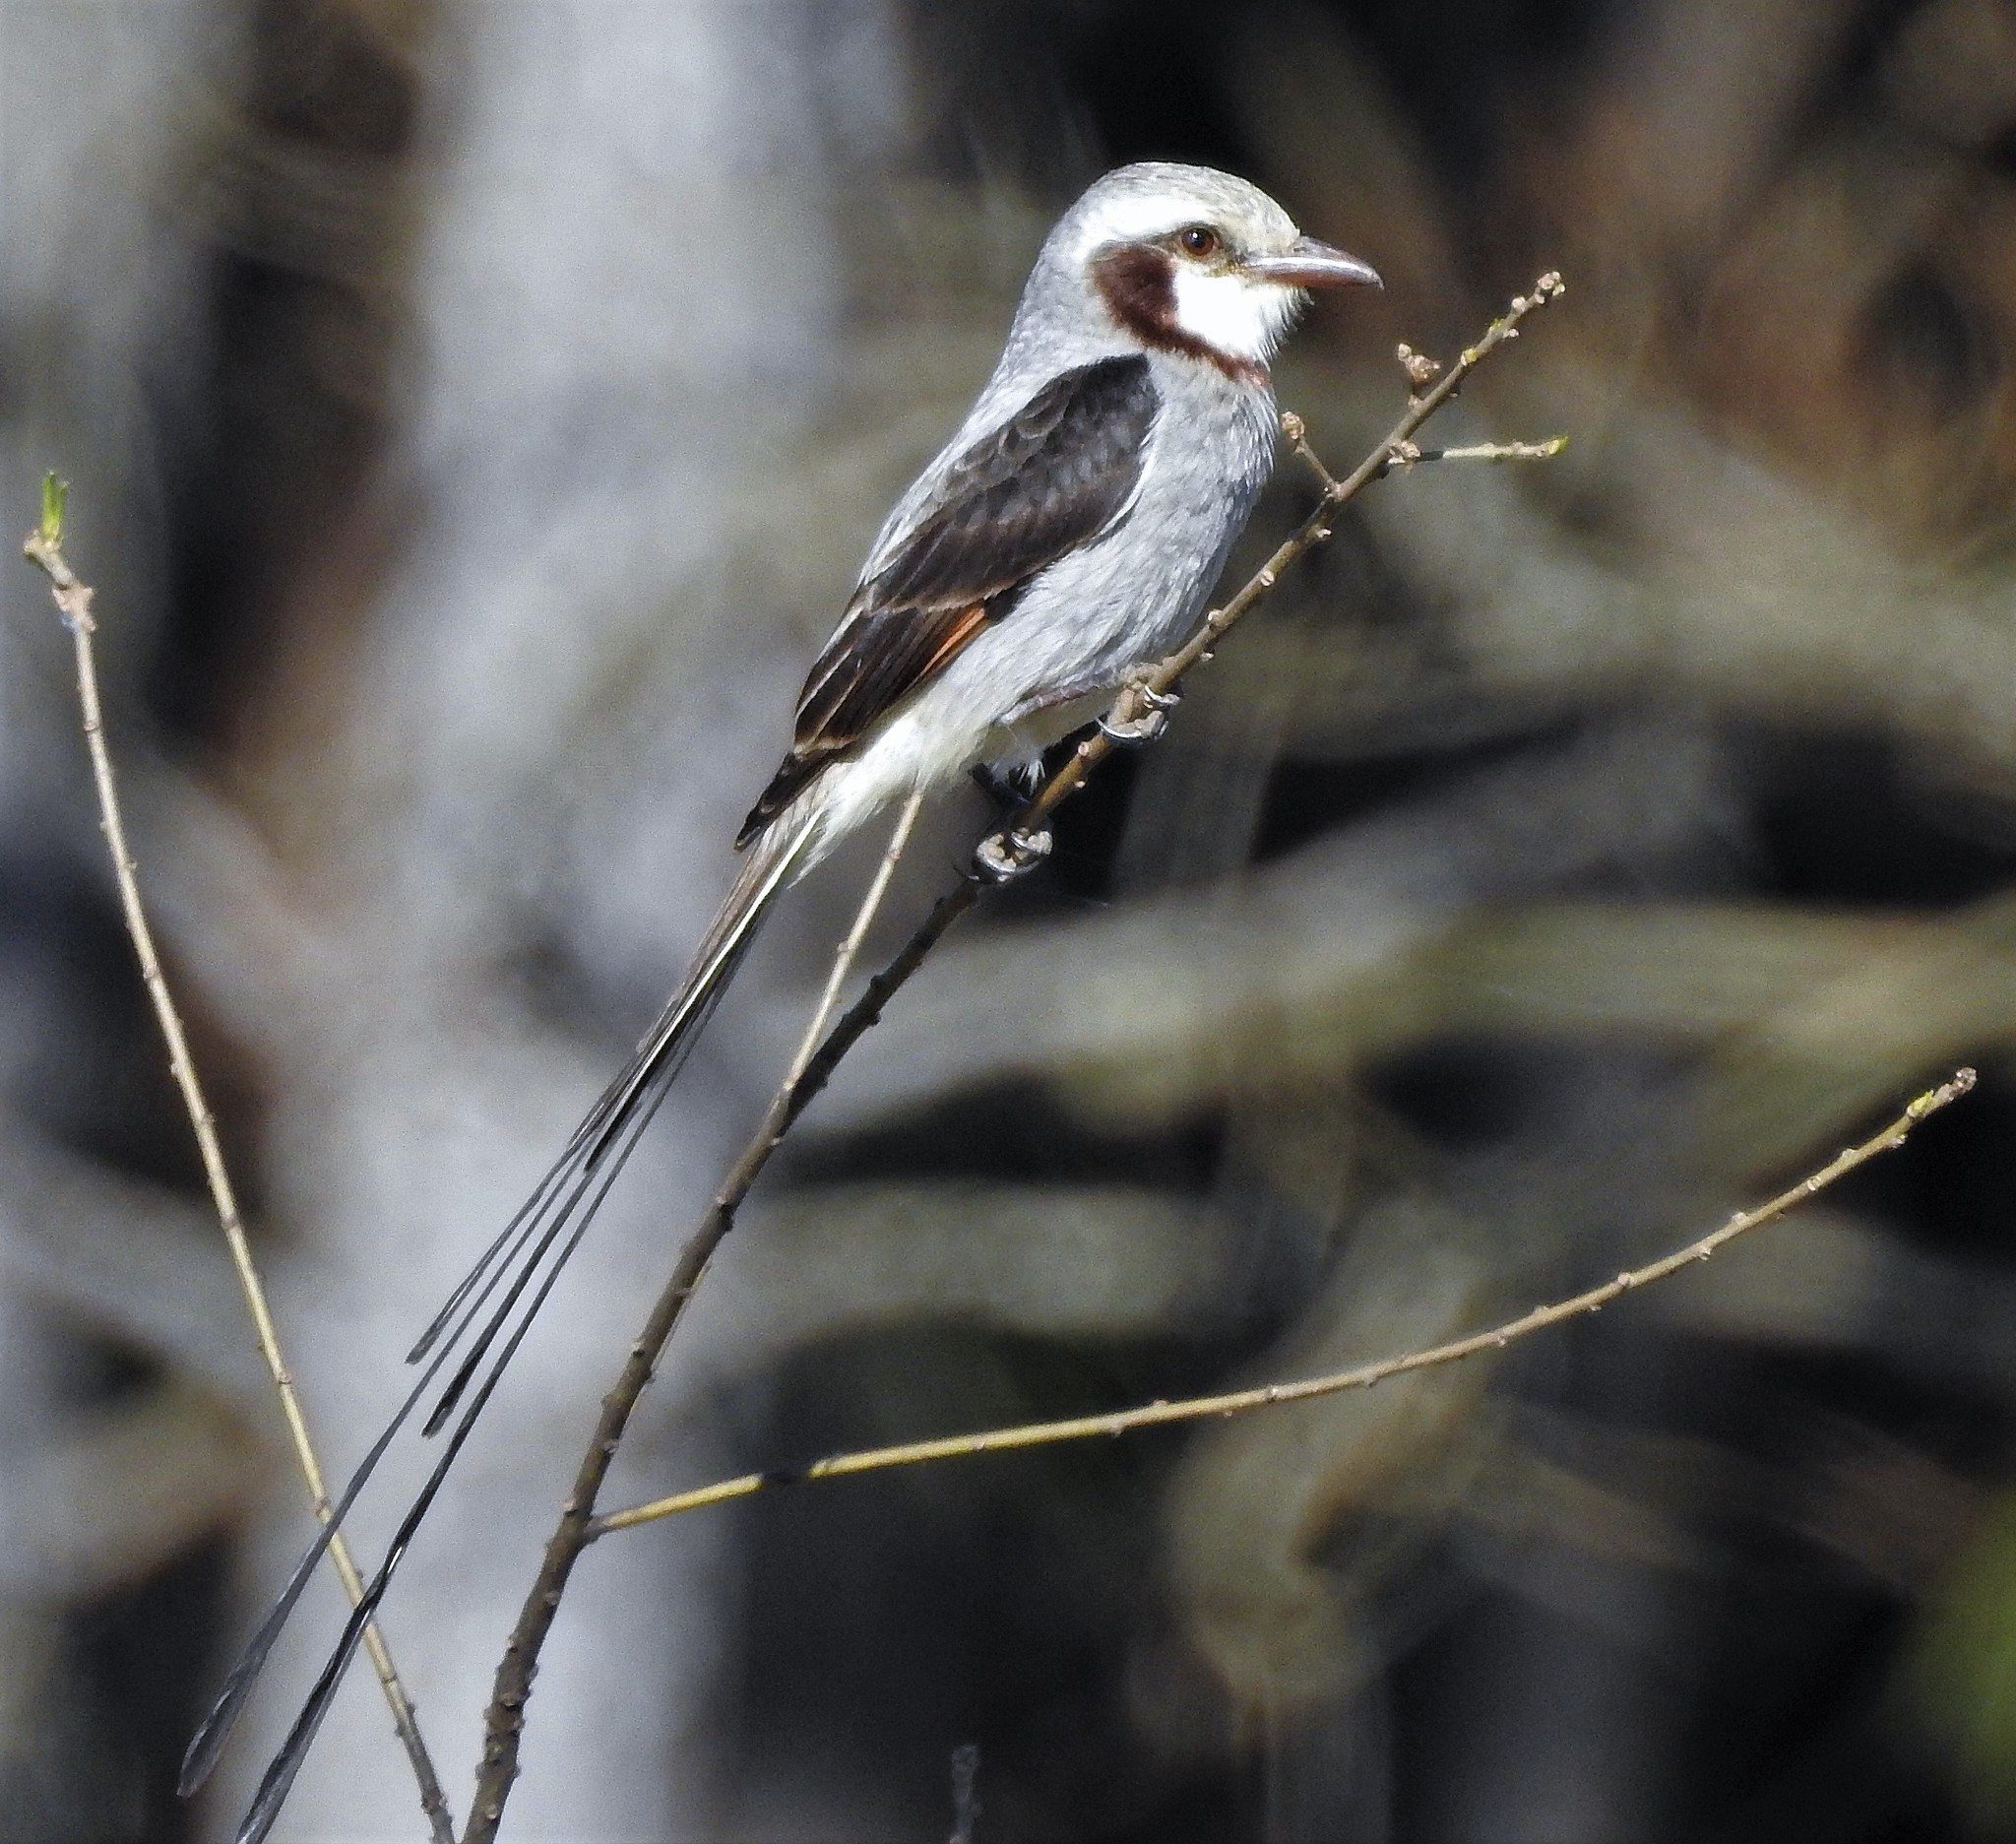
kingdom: Animalia
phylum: Chordata
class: Aves
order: Passeriformes
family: Tyrannidae
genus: Gubernetes
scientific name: Gubernetes yetapa
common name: Streamer-tailed tyrant
